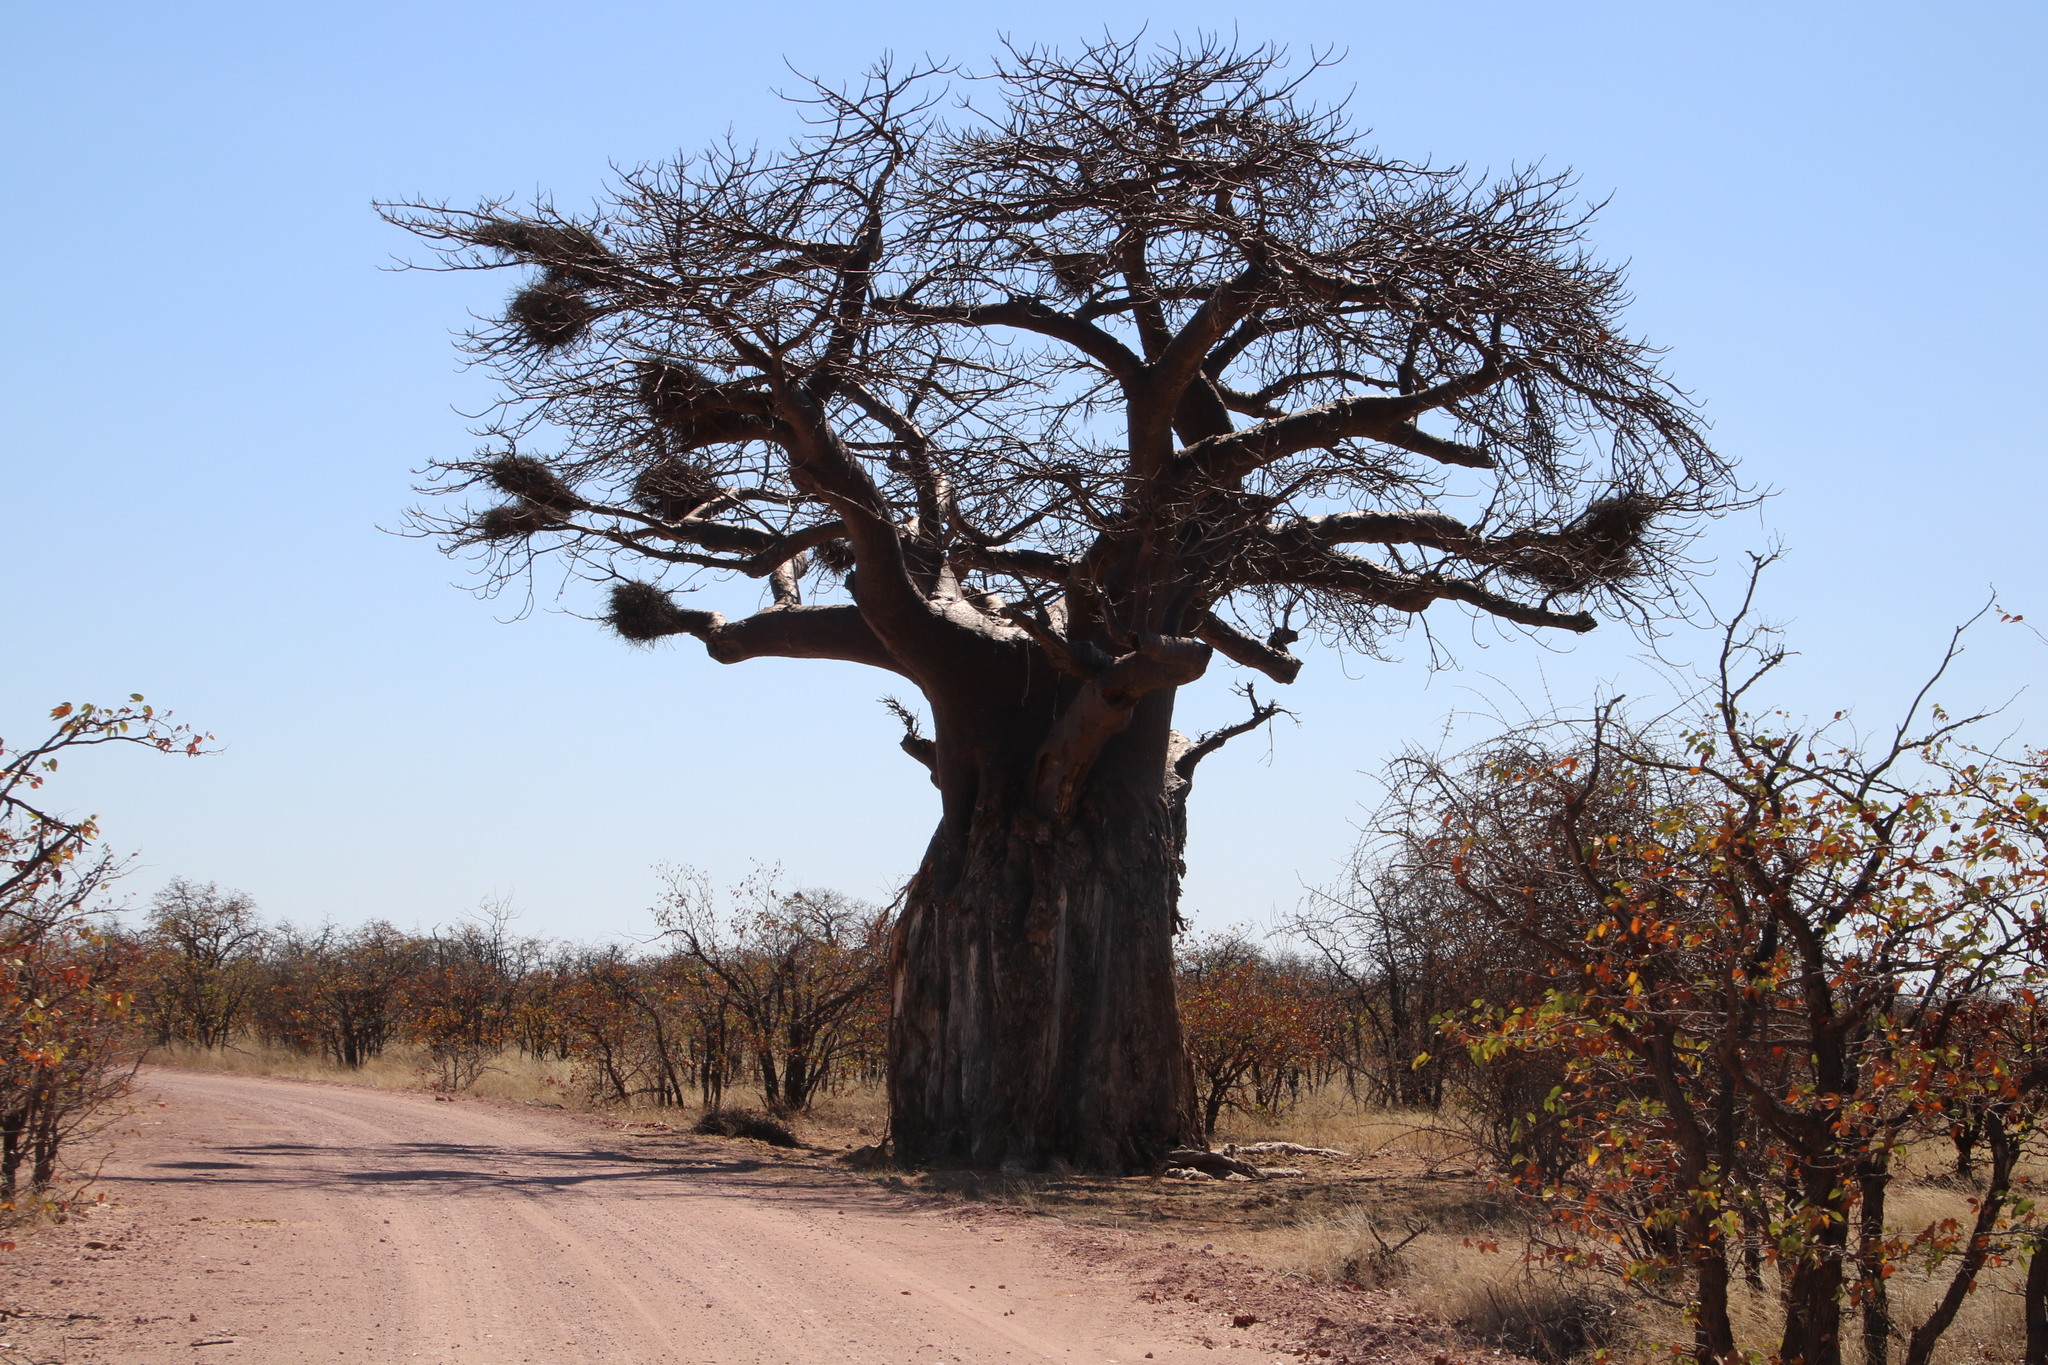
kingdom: Plantae
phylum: Tracheophyta
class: Magnoliopsida
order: Malvales
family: Malvaceae
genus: Adansonia
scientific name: Adansonia digitata
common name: Dead-rat-tree
